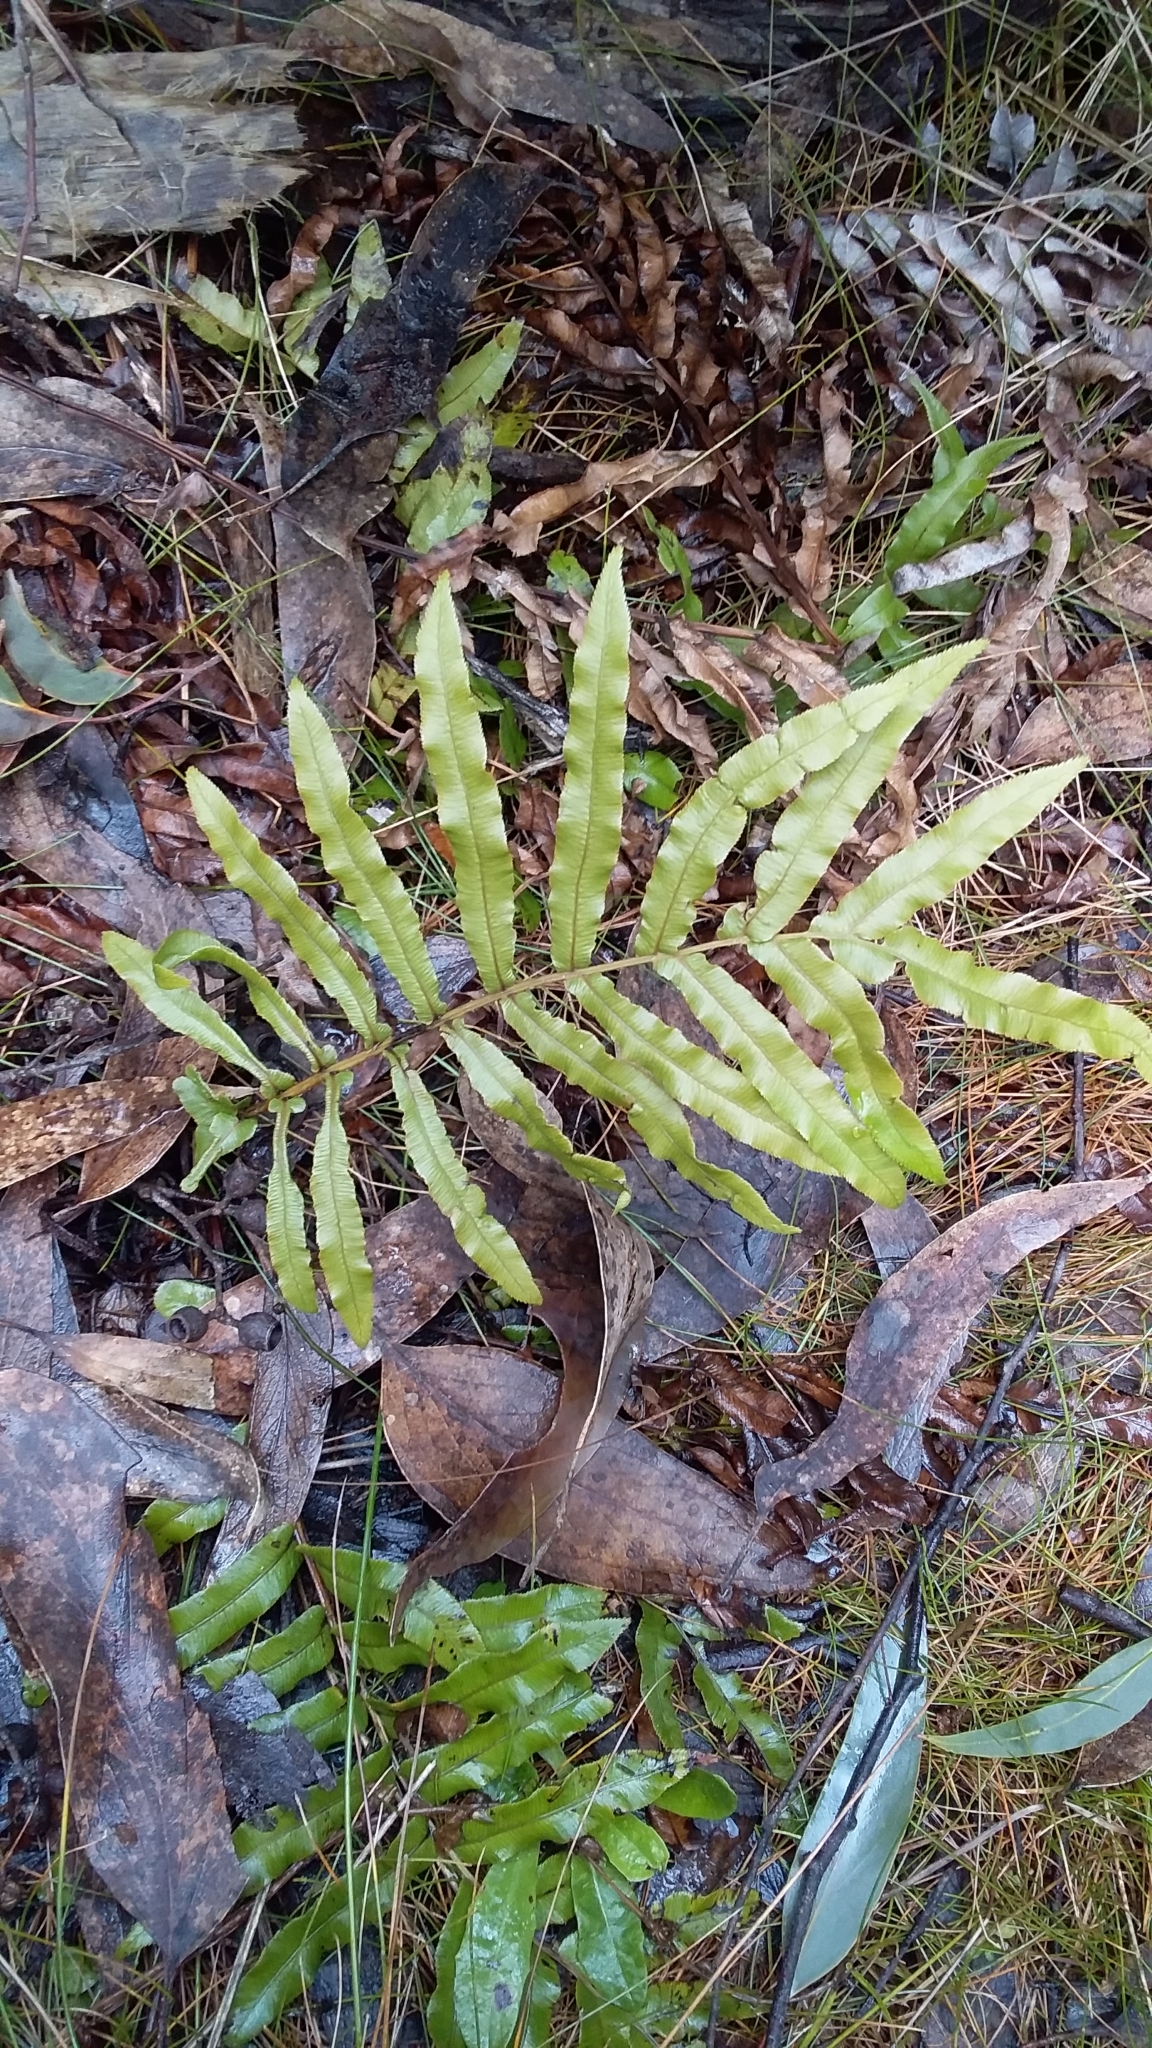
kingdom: Plantae
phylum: Tracheophyta
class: Polypodiopsida
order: Polypodiales
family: Blechnaceae
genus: Parablechnum
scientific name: Parablechnum minus
